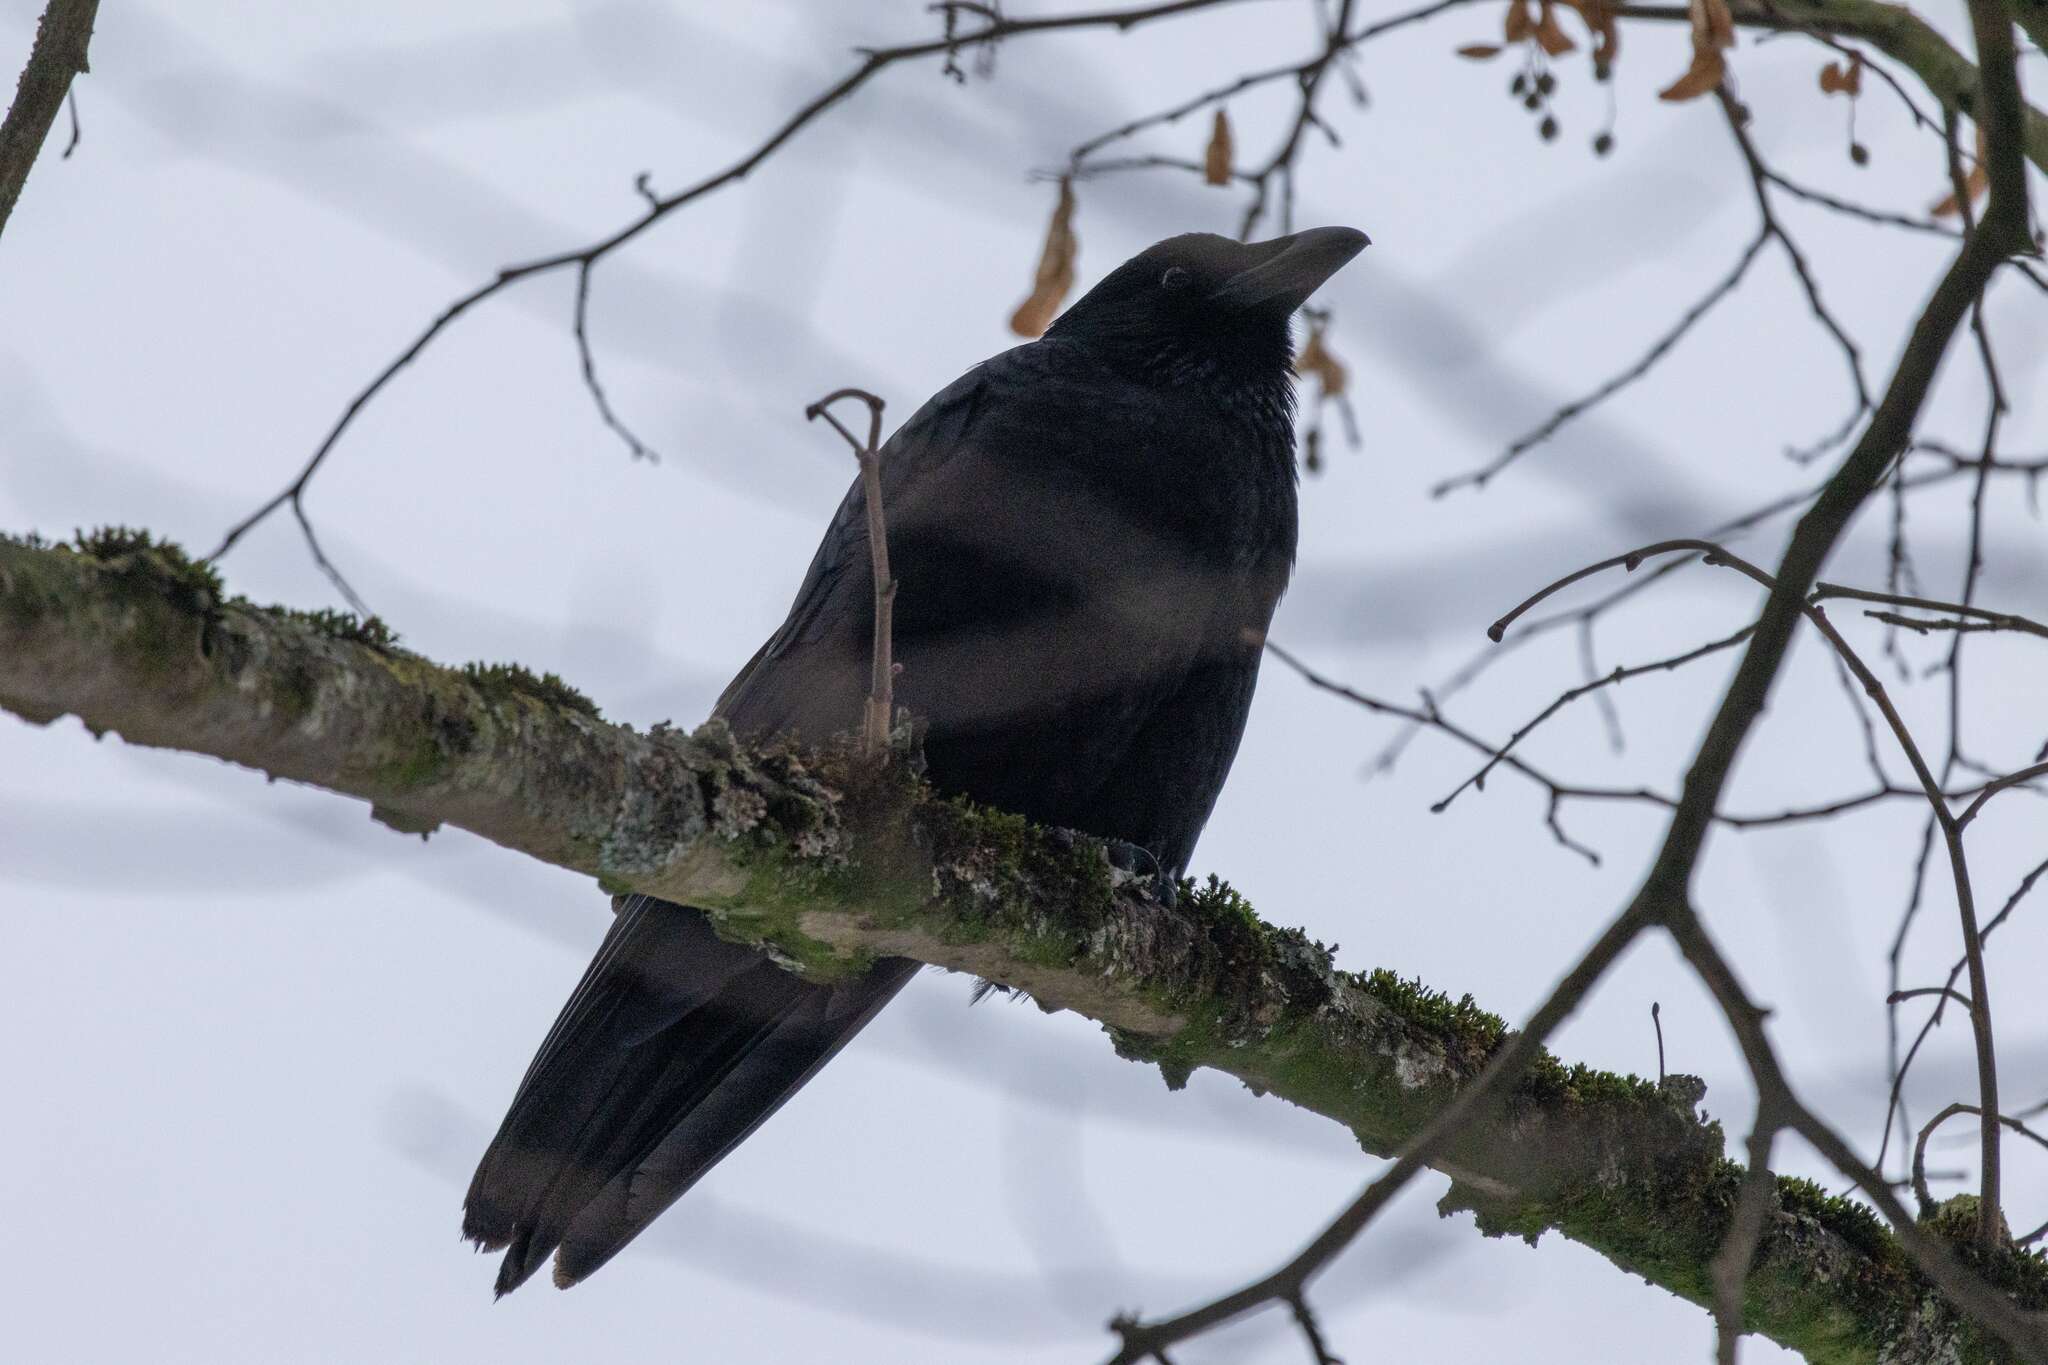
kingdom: Animalia
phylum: Chordata
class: Aves
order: Passeriformes
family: Corvidae
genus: Corvus
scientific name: Corvus corone
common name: Carrion crow
